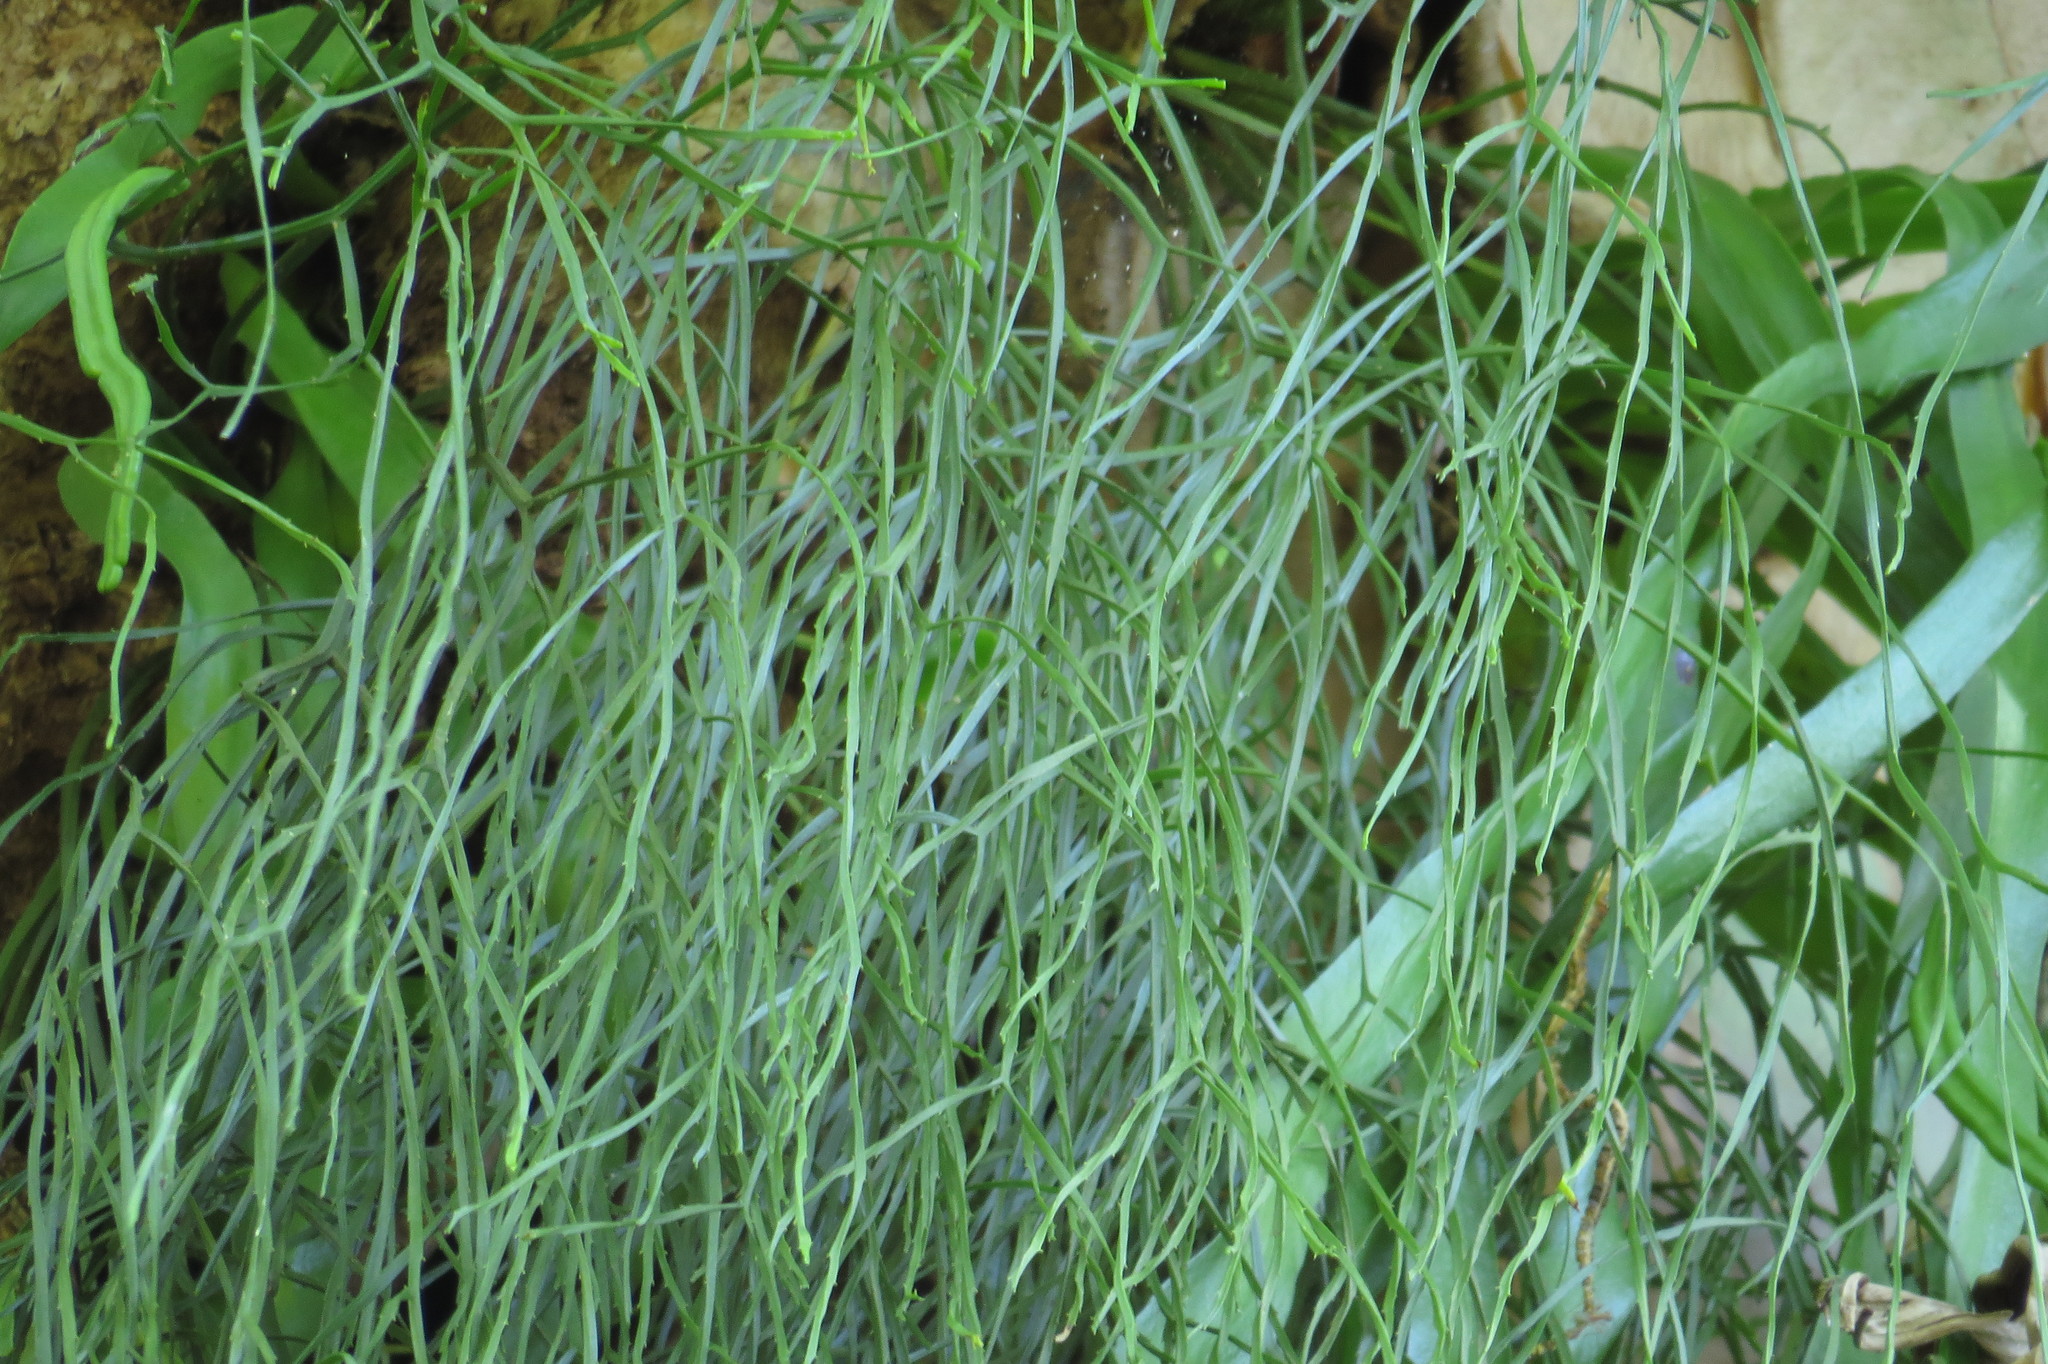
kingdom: Plantae
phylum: Tracheophyta
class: Polypodiopsida
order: Psilotales
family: Psilotaceae
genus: Psilotum
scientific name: Psilotum nudum
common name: Skeleton fork fern
